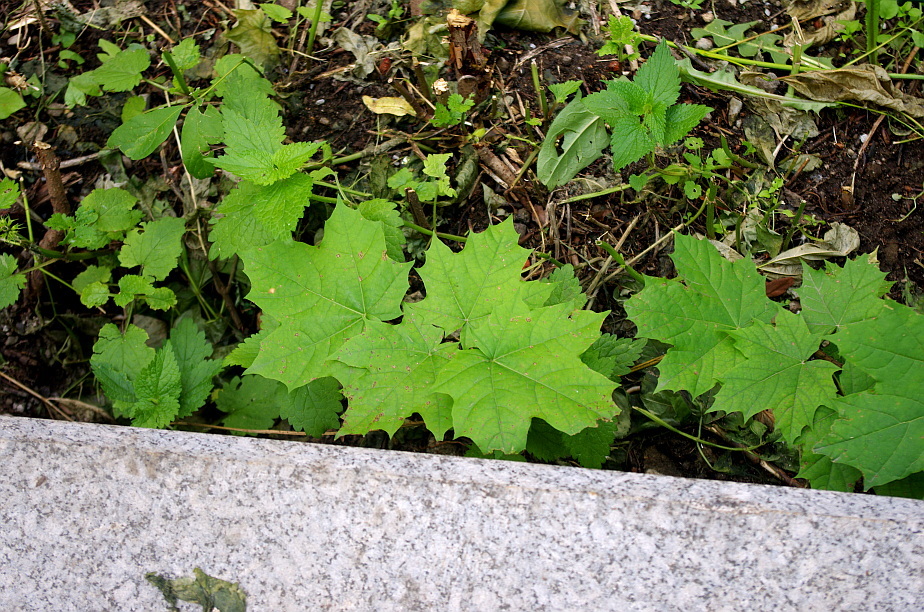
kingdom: Plantae
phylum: Tracheophyta
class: Magnoliopsida
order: Sapindales
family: Sapindaceae
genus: Acer
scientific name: Acer platanoides
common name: Norway maple
